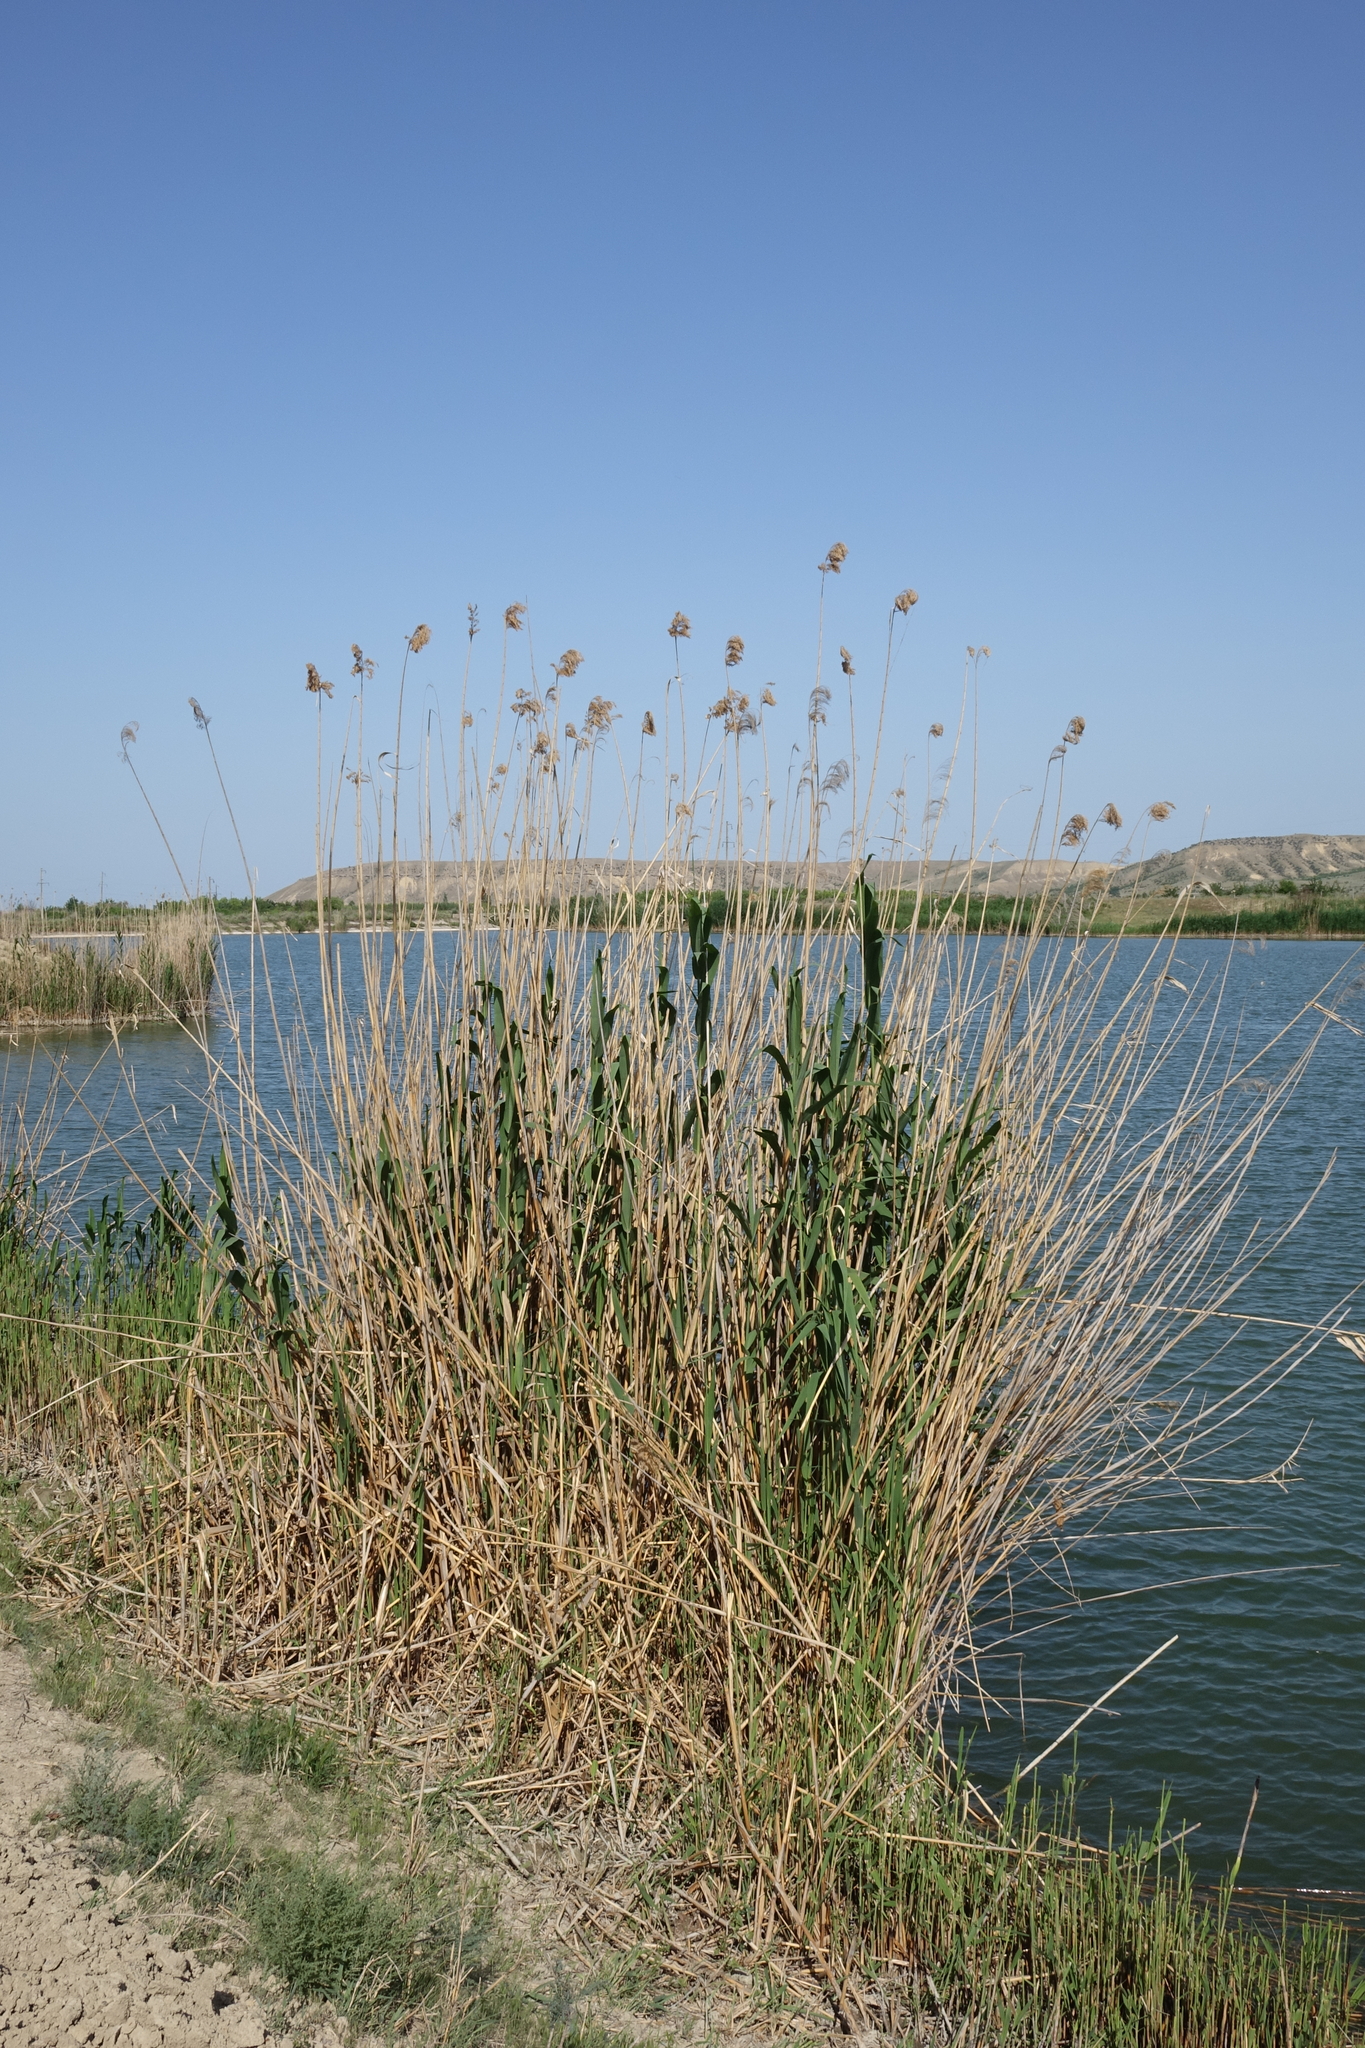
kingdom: Plantae
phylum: Tracheophyta
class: Liliopsida
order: Poales
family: Poaceae
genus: Phragmites
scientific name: Phragmites australis
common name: Common reed
